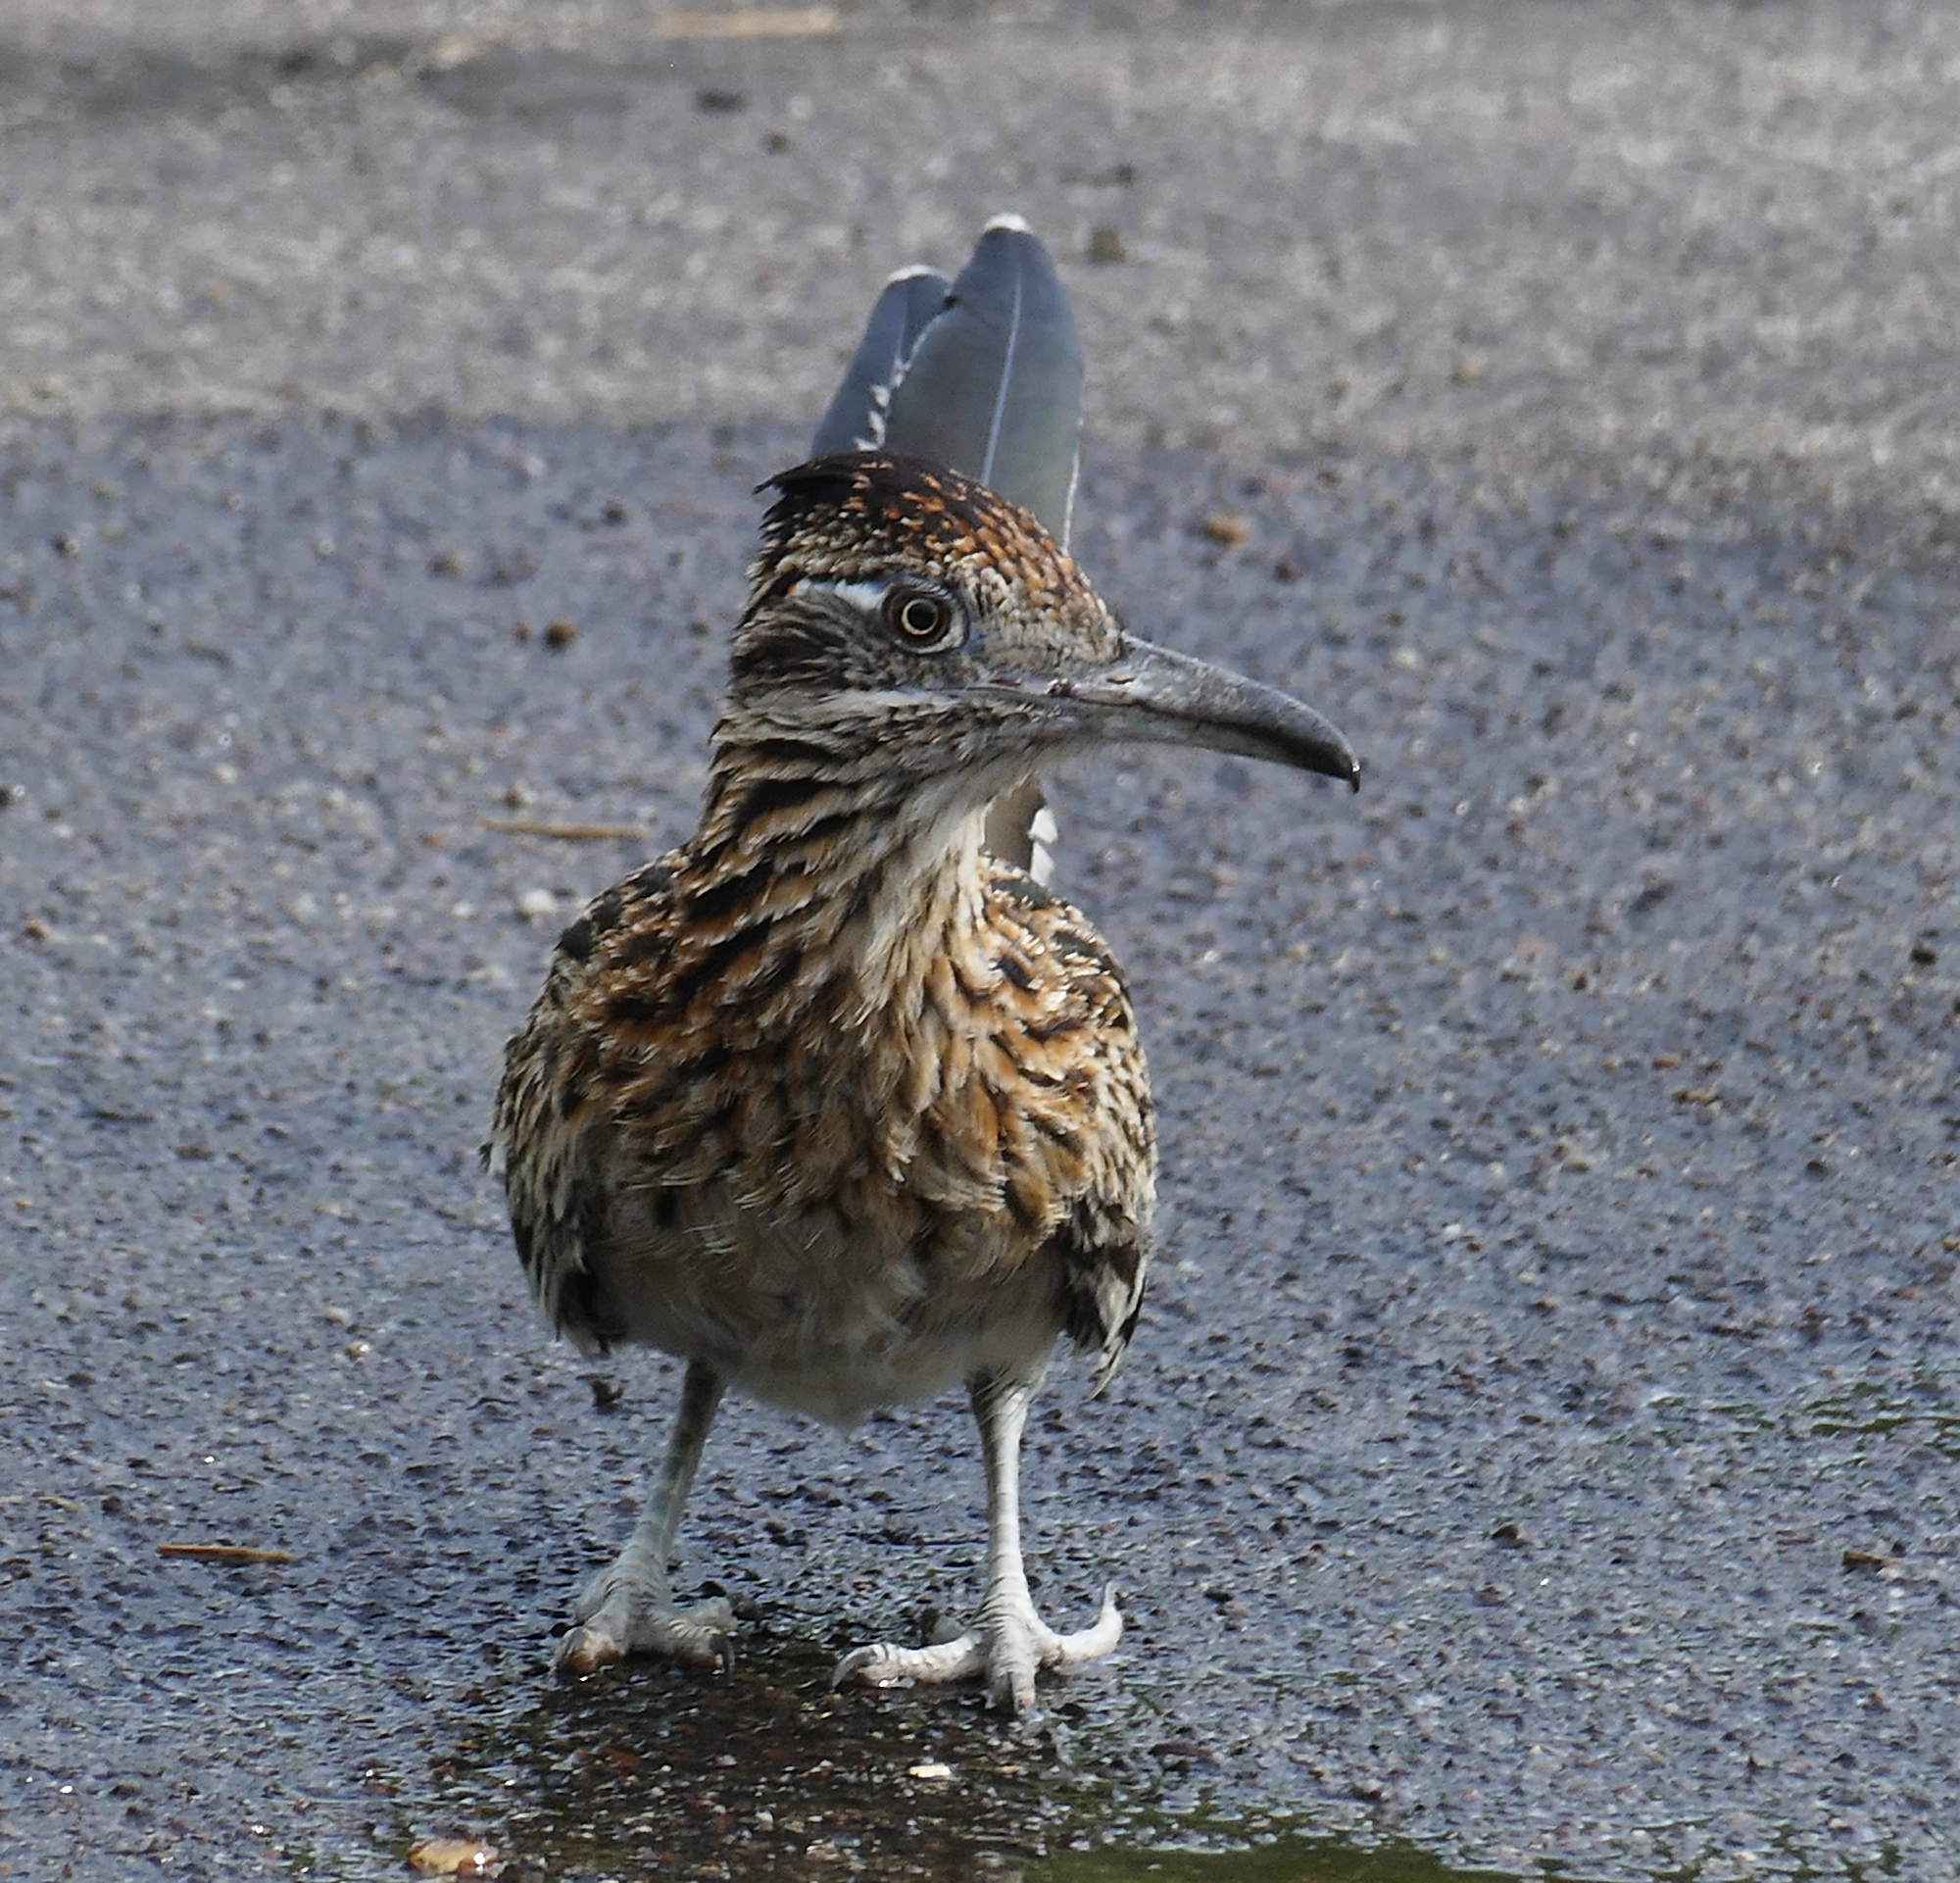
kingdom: Animalia
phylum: Chordata
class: Aves
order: Cuculiformes
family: Cuculidae
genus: Geococcyx
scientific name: Geococcyx californianus
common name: Greater roadrunner
